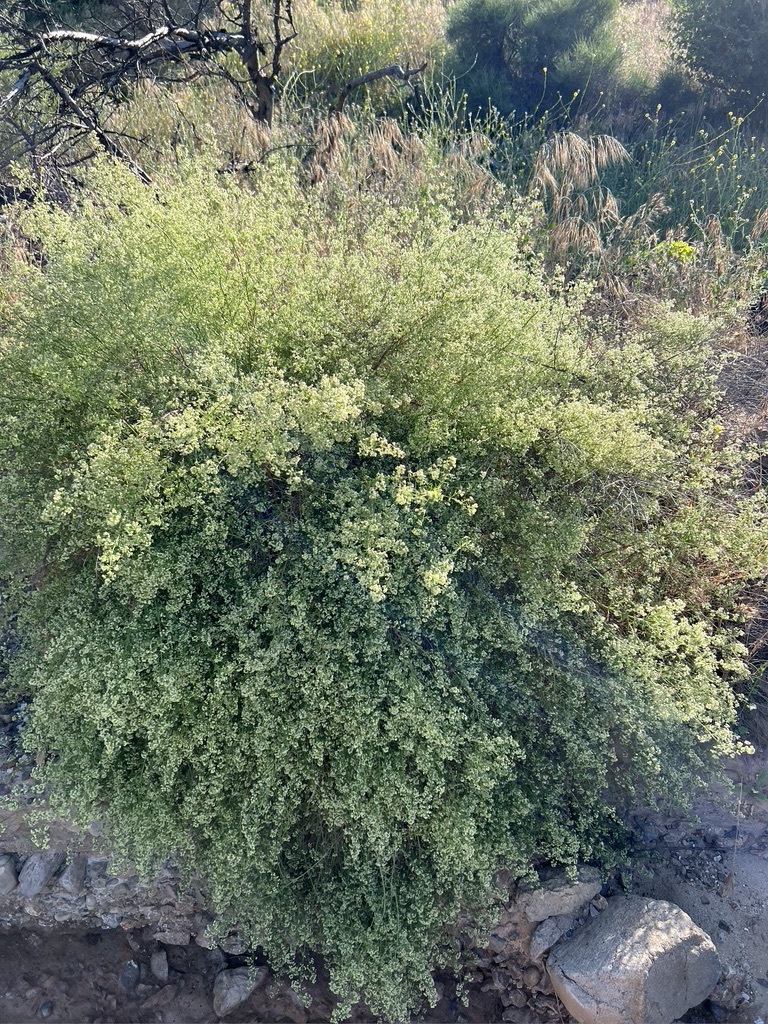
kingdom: Plantae
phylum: Tracheophyta
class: Magnoliopsida
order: Gentianales
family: Rubiaceae
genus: Galium
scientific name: Galium angustifolium
